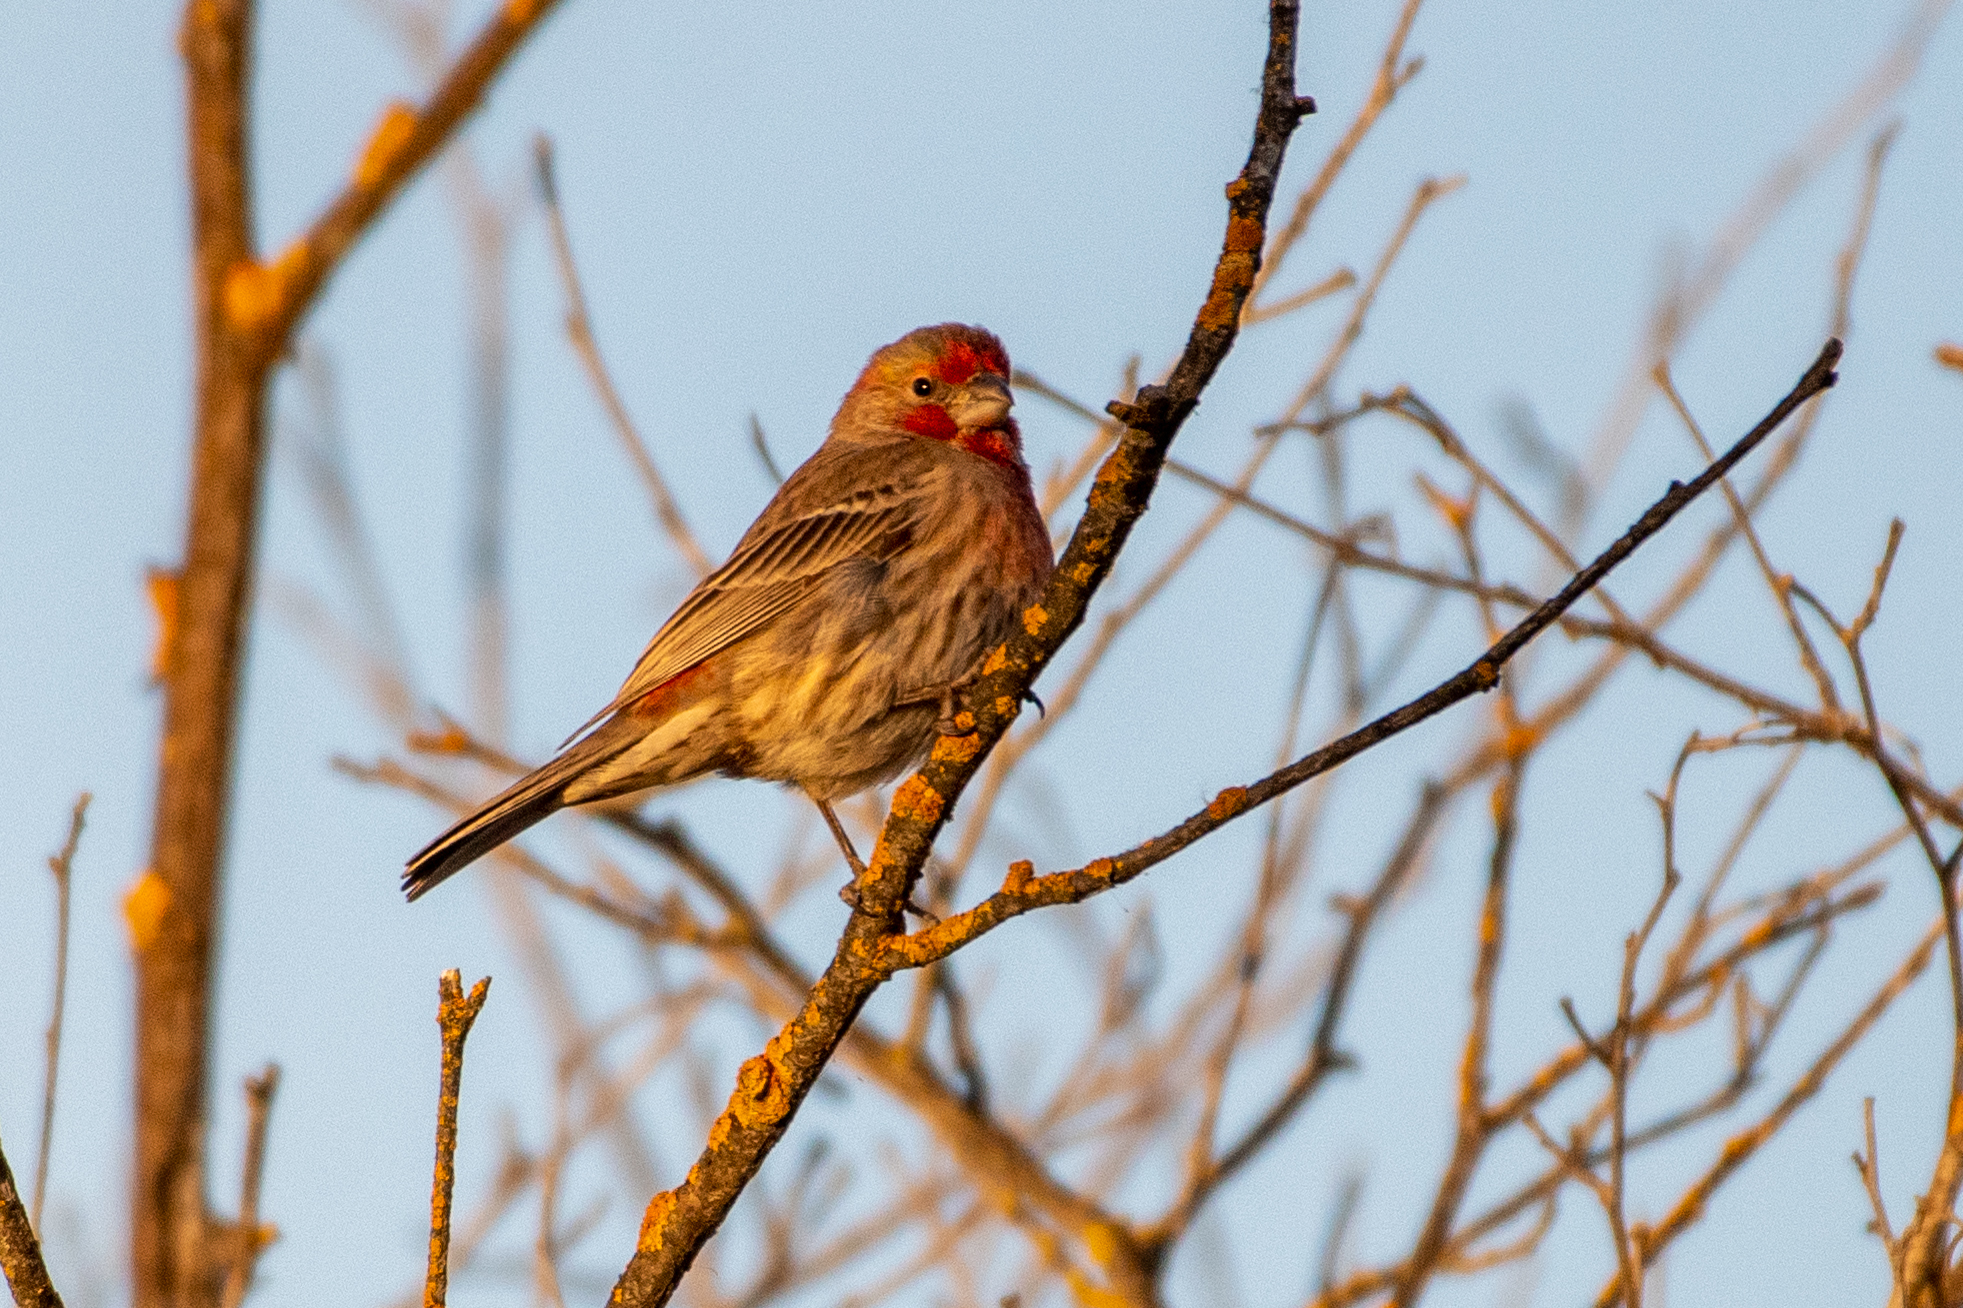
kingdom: Animalia
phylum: Chordata
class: Aves
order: Passeriformes
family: Fringillidae
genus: Haemorhous
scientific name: Haemorhous mexicanus
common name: House finch
